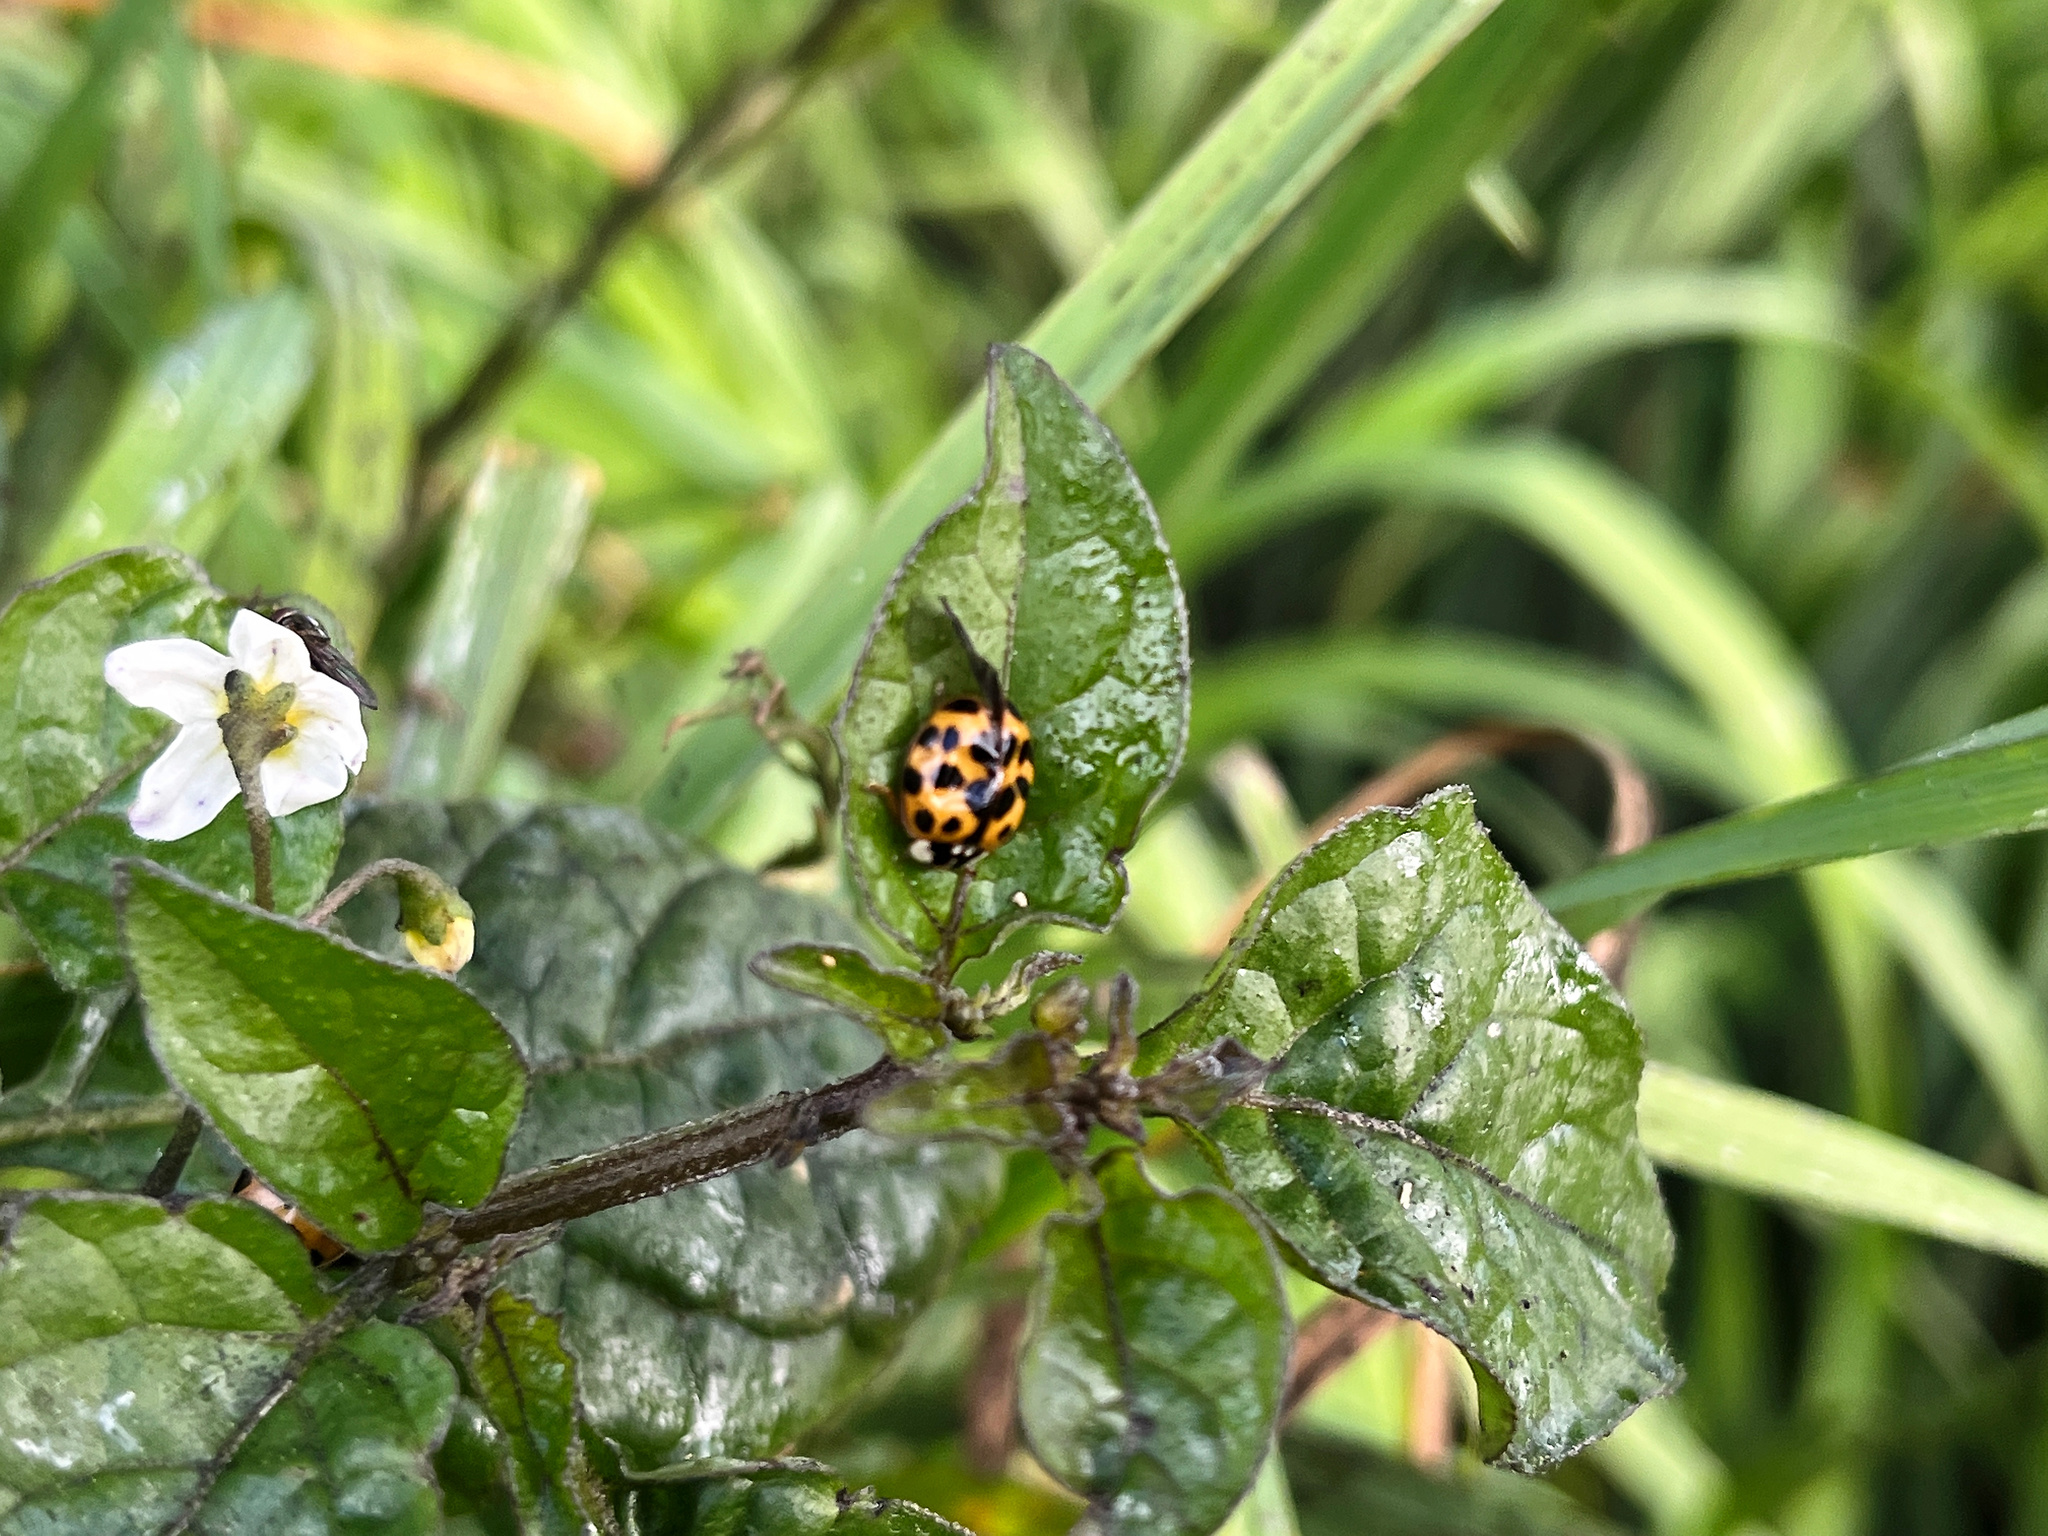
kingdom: Animalia
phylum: Arthropoda
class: Insecta
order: Coleoptera
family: Coccinellidae
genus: Harmonia
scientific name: Harmonia axyridis
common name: Harlequin ladybird
